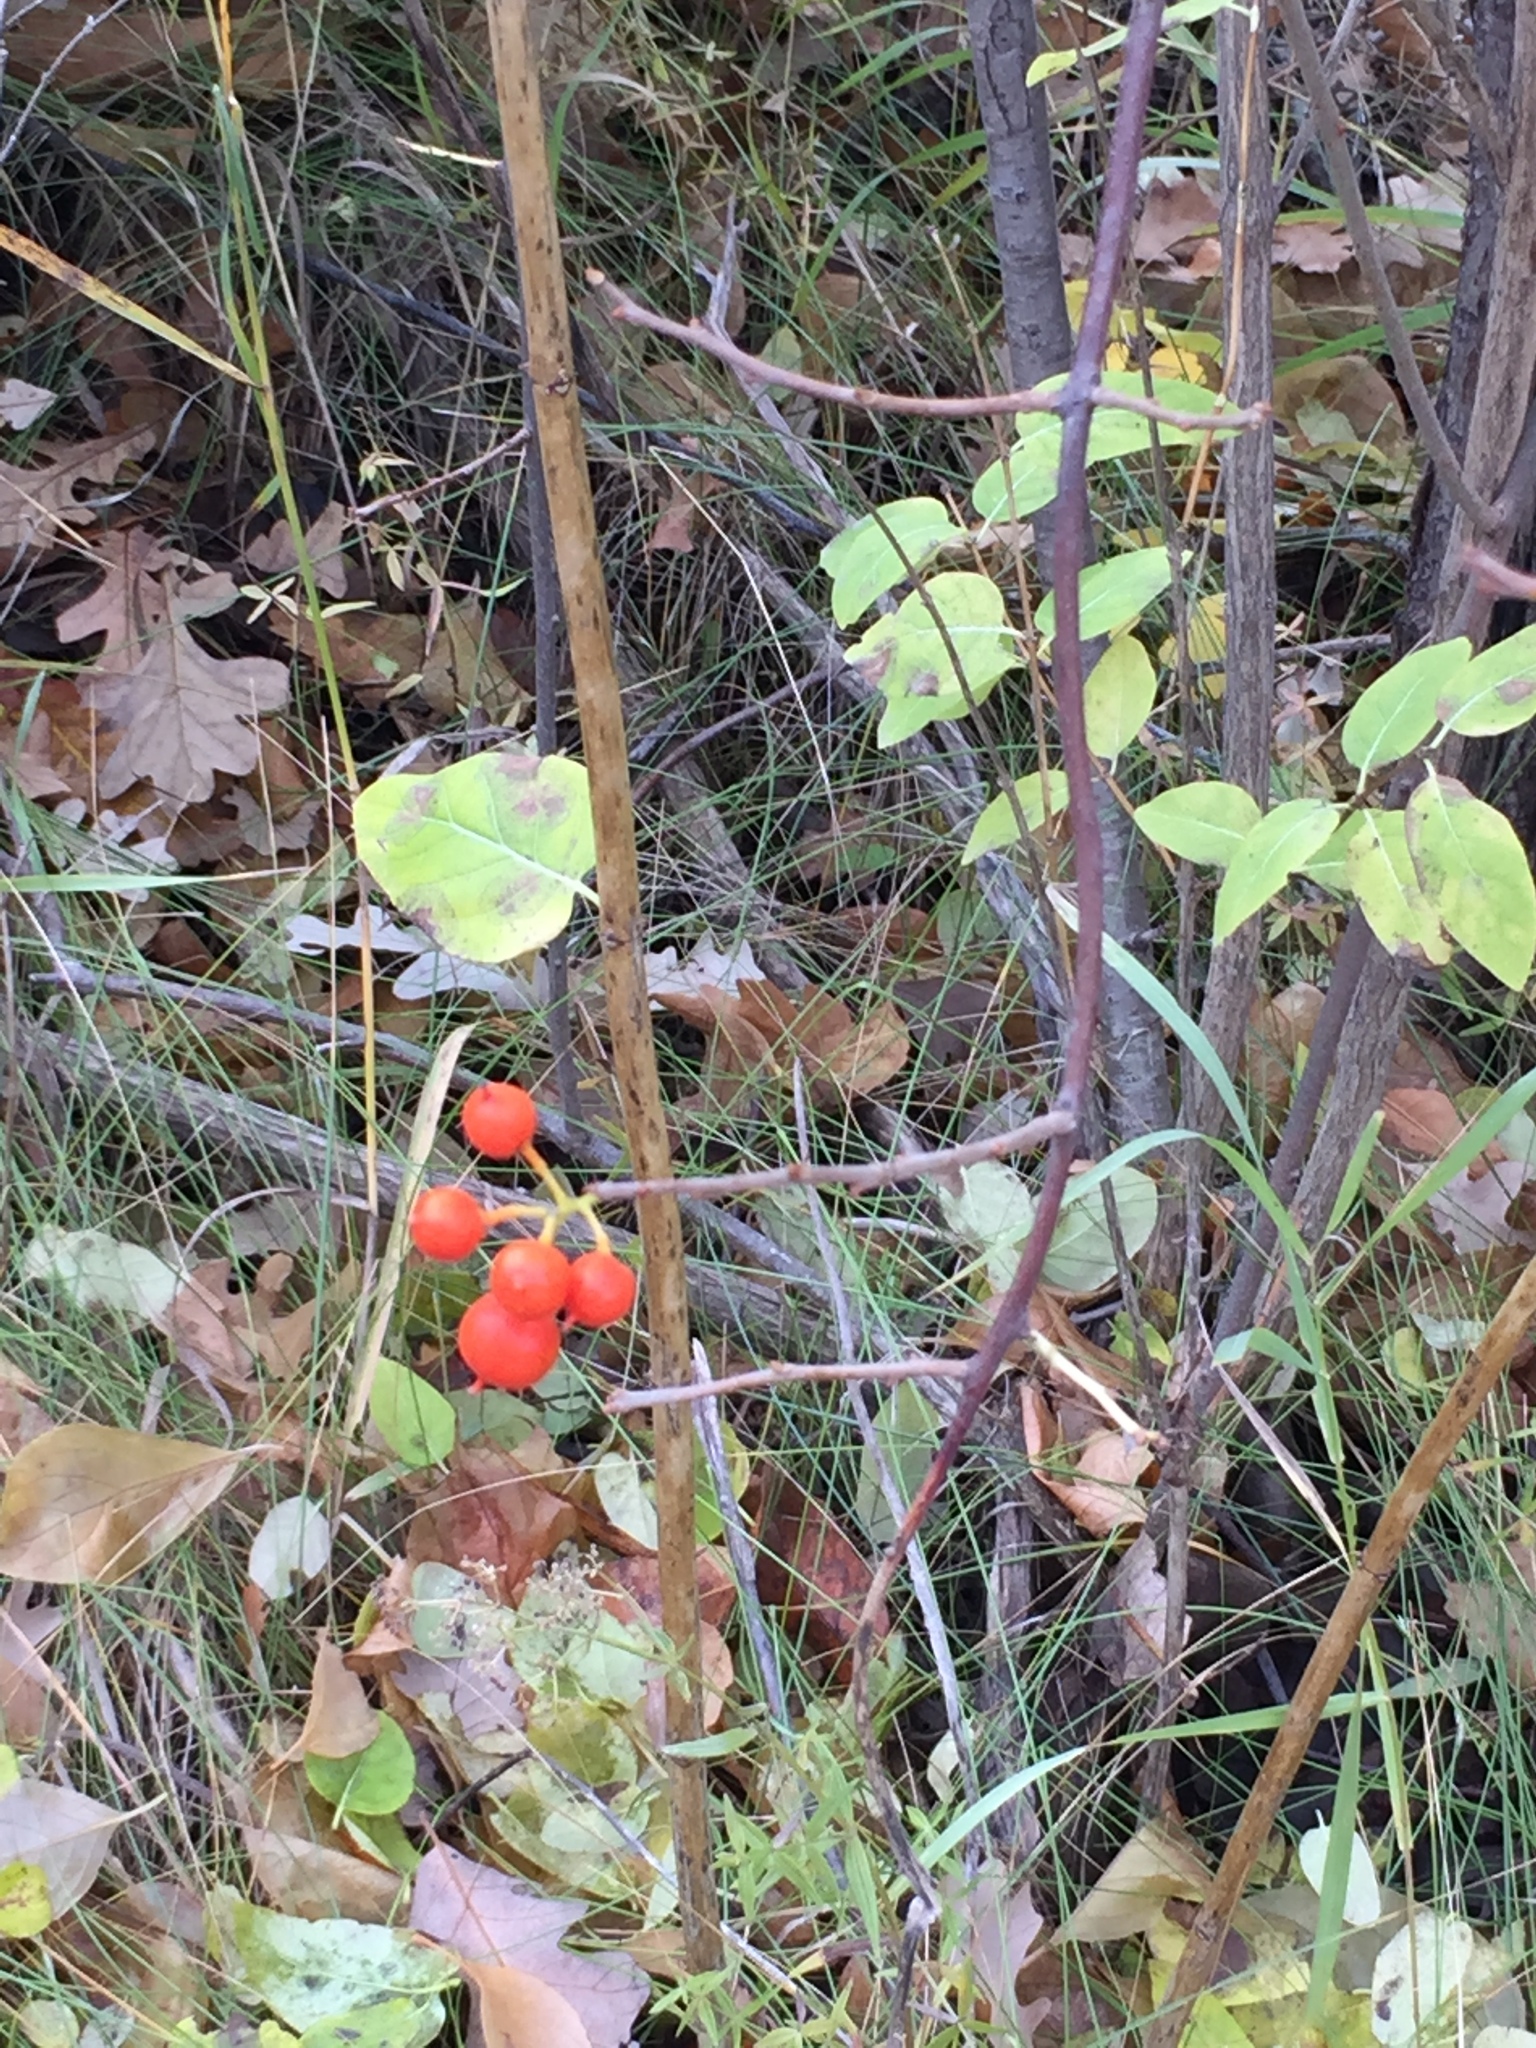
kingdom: Plantae
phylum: Tracheophyta
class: Magnoliopsida
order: Celastrales
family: Celastraceae
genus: Celastrus
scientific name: Celastrus scandens
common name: American bittersweet
